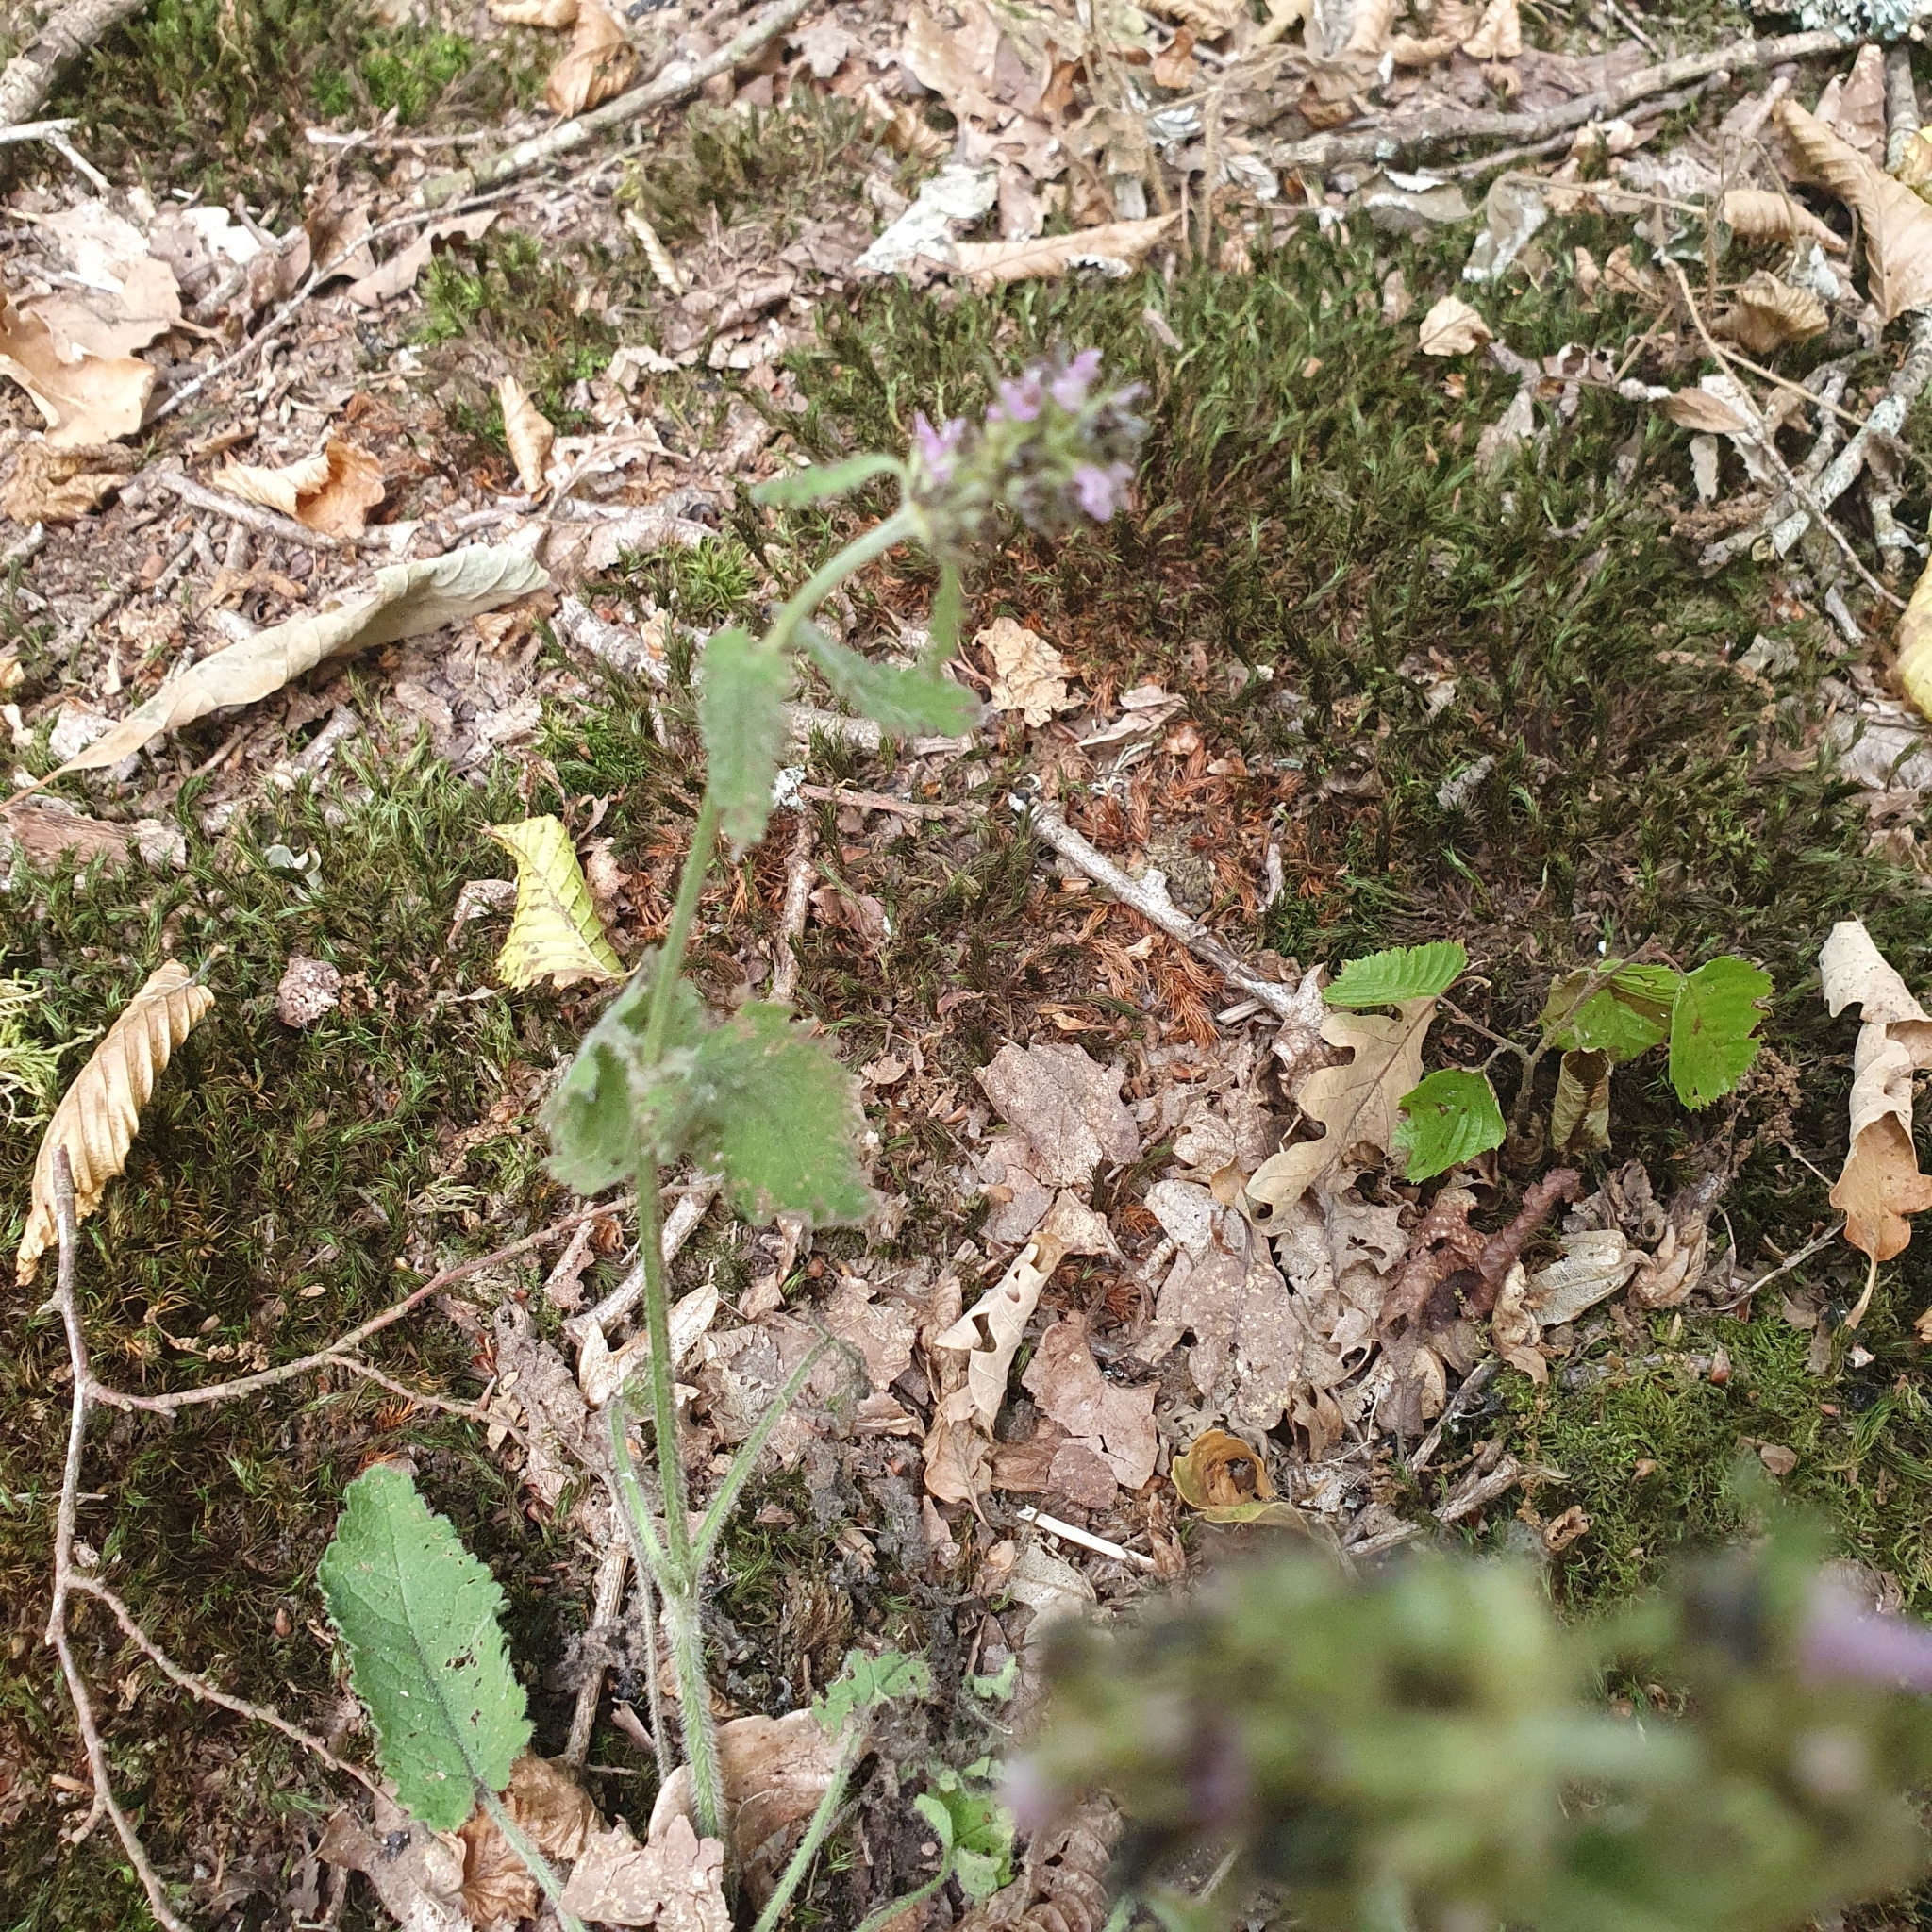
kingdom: Plantae
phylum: Tracheophyta
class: Magnoliopsida
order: Lamiales
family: Lamiaceae
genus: Betonica
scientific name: Betonica officinalis
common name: Bishop's-wort
